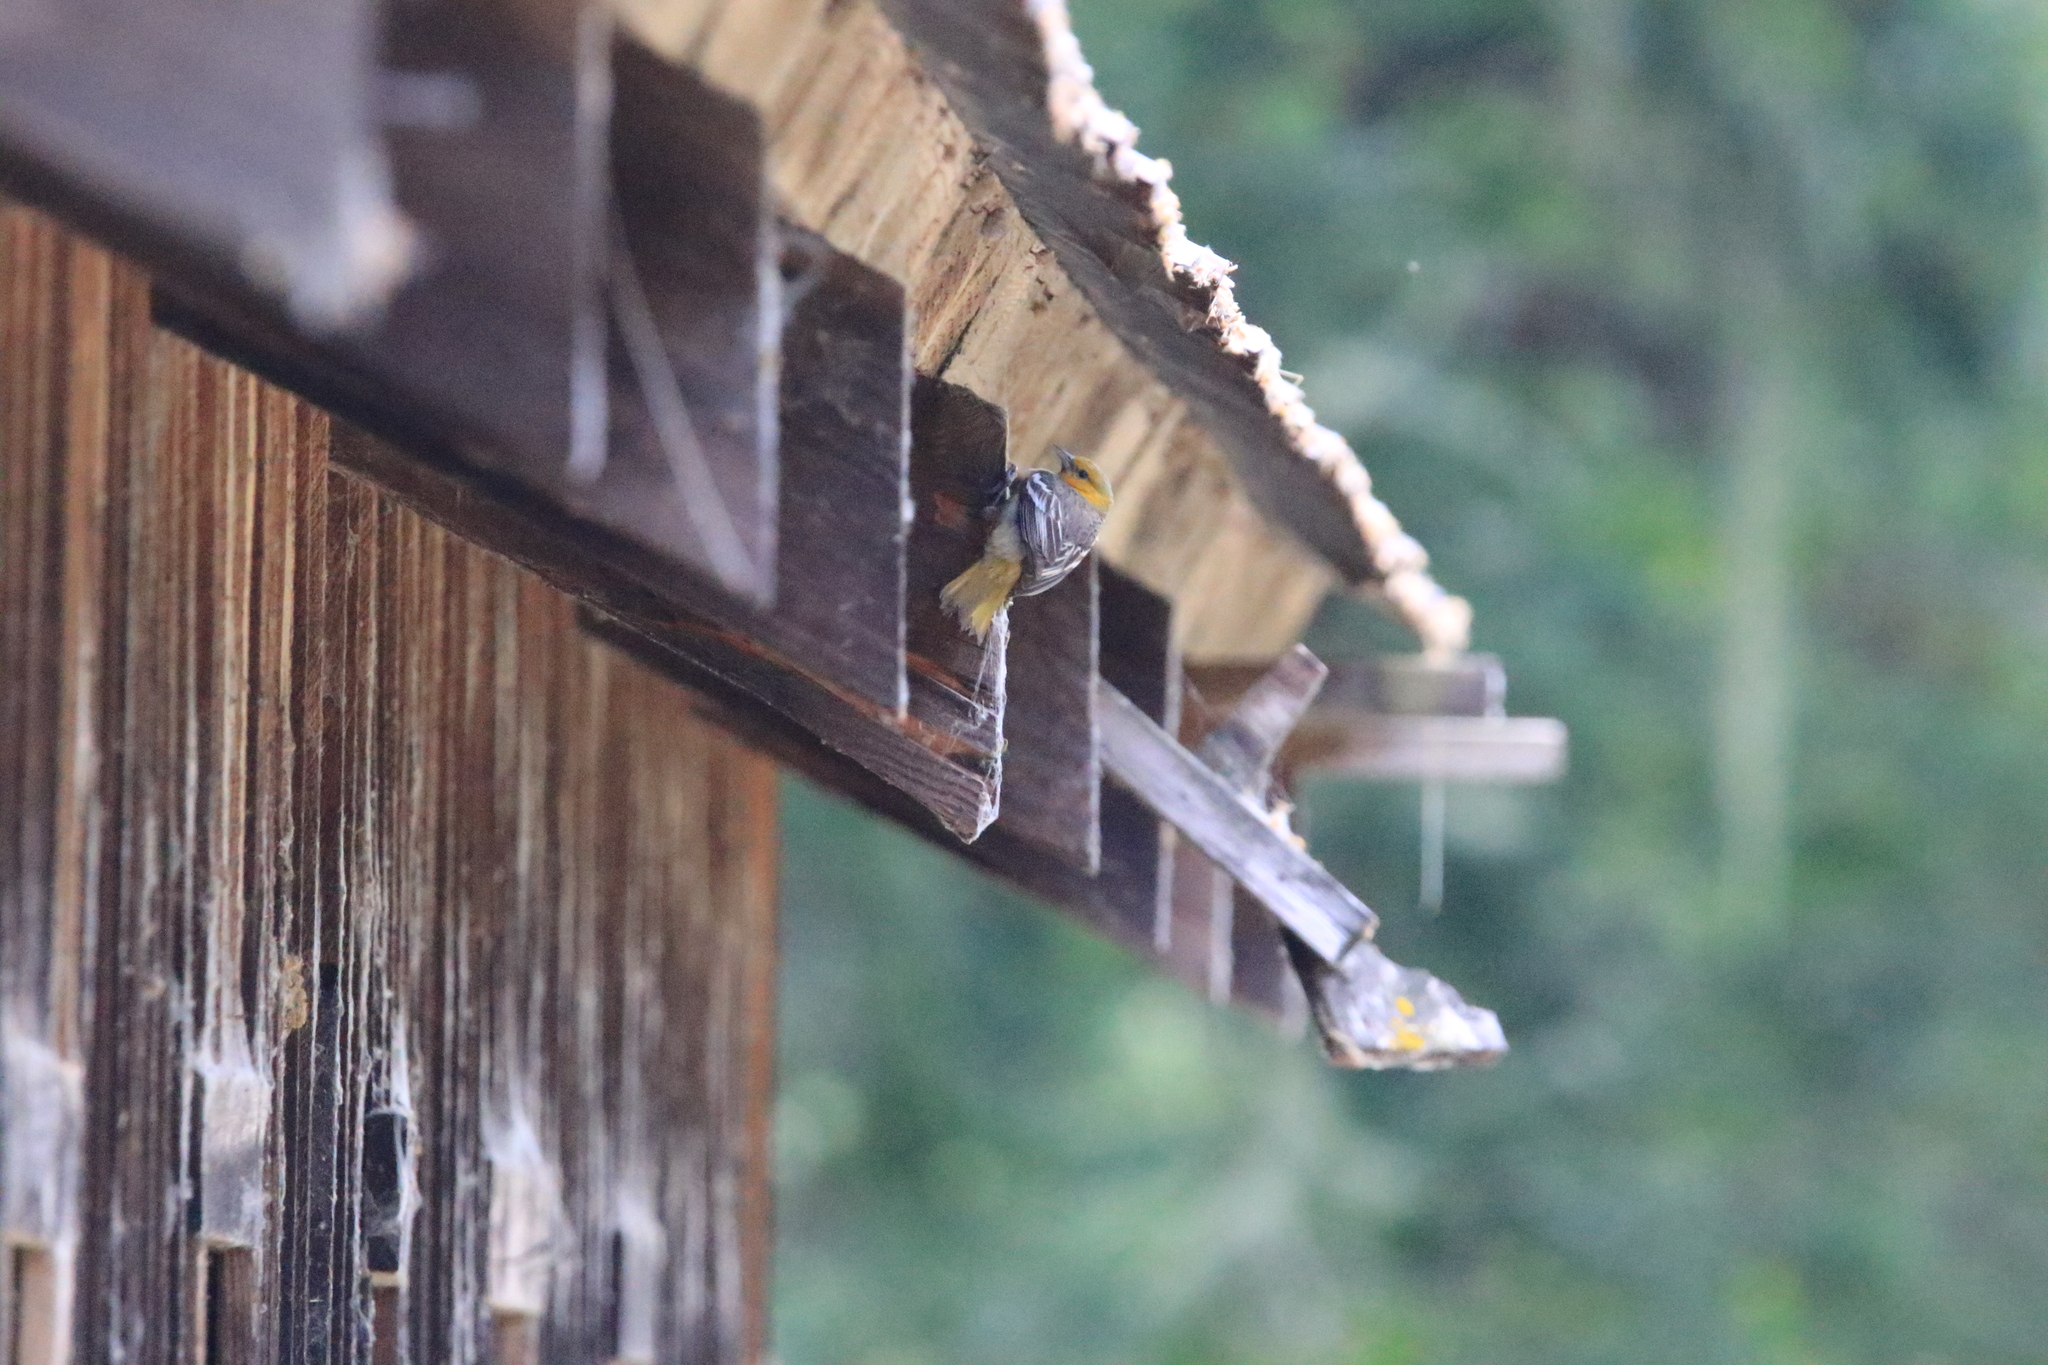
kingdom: Animalia
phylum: Chordata
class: Aves
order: Passeriformes
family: Icteridae
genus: Icterus
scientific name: Icterus bullockii
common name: Bullock's oriole
